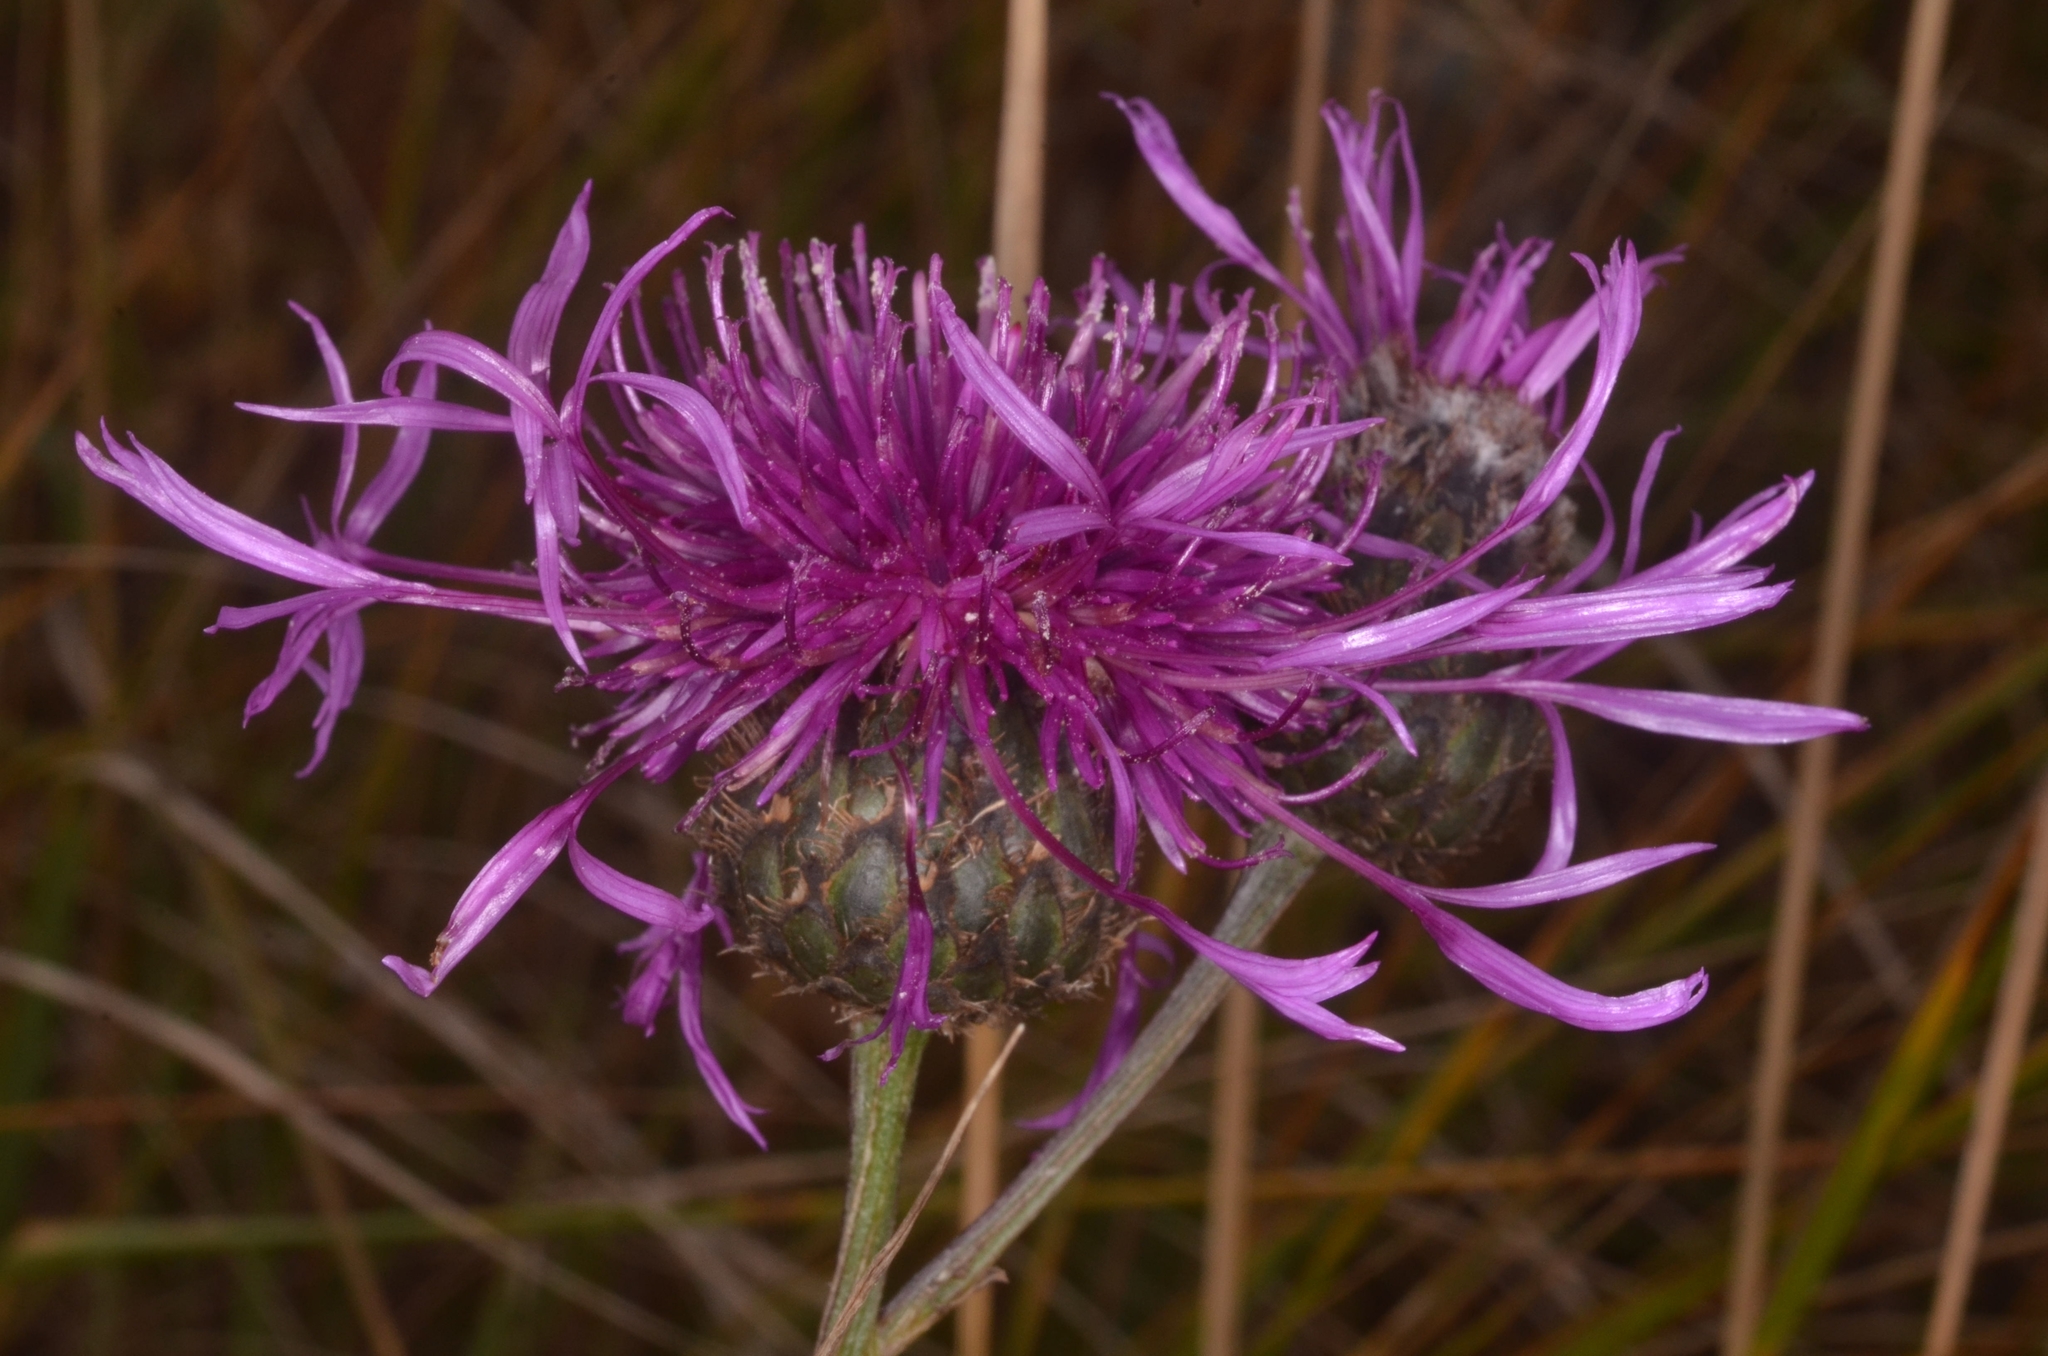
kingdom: Plantae
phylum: Tracheophyta
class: Magnoliopsida
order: Asterales
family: Asteraceae
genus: Centaurea
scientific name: Centaurea scabiosa
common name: Greater knapweed
